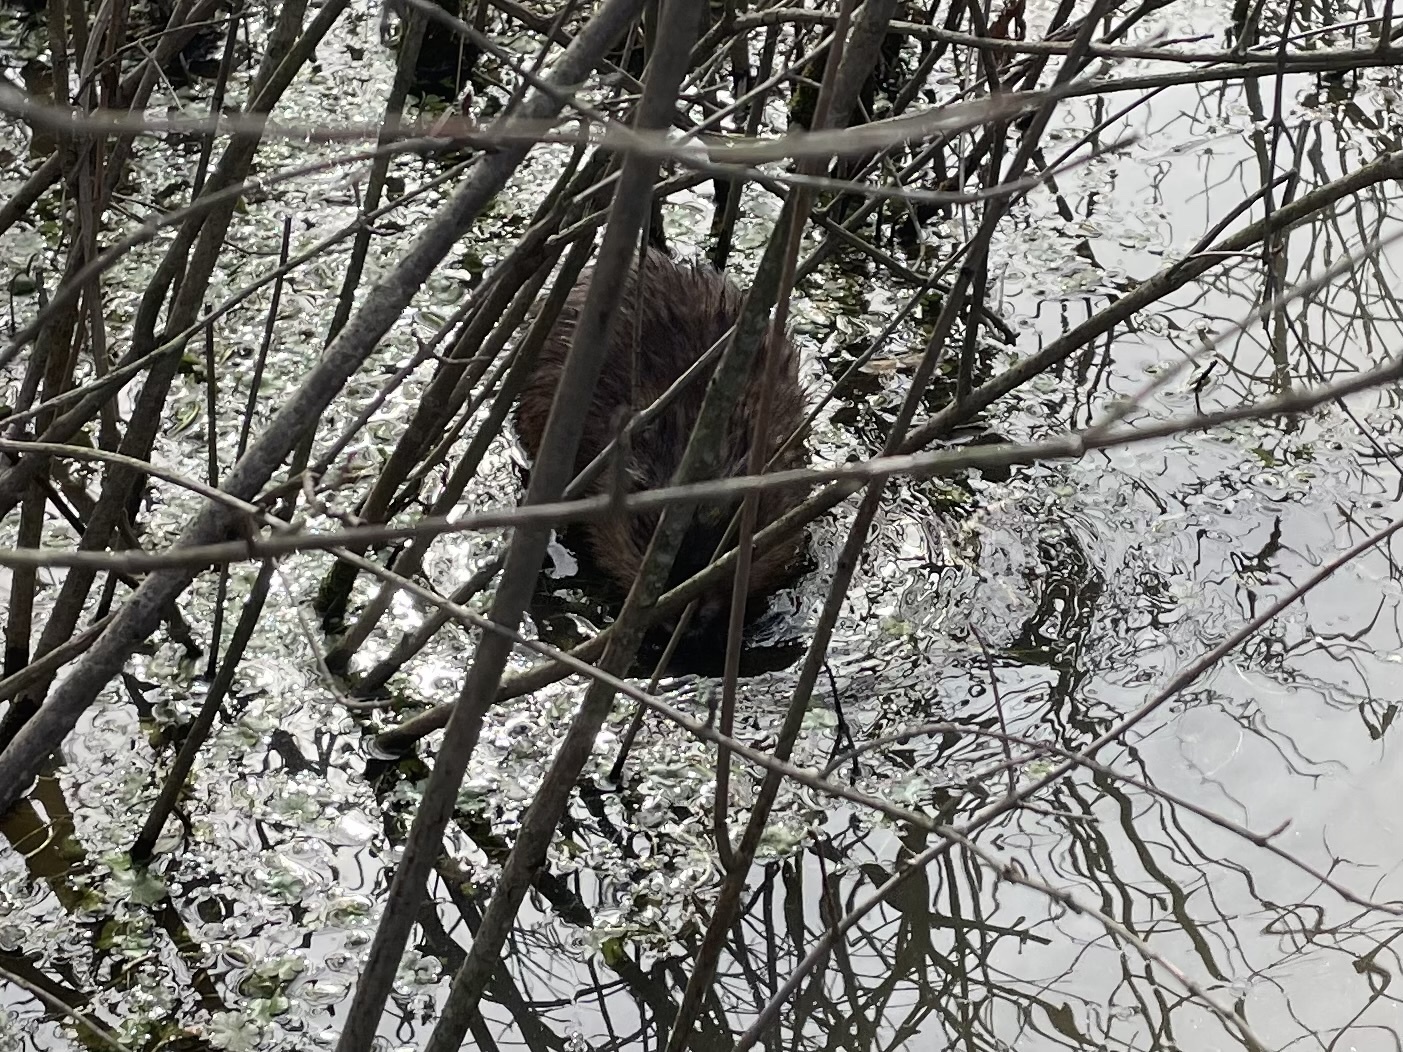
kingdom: Animalia
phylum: Chordata
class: Mammalia
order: Rodentia
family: Cricetidae
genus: Ondatra
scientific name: Ondatra zibethicus
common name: Muskrat
